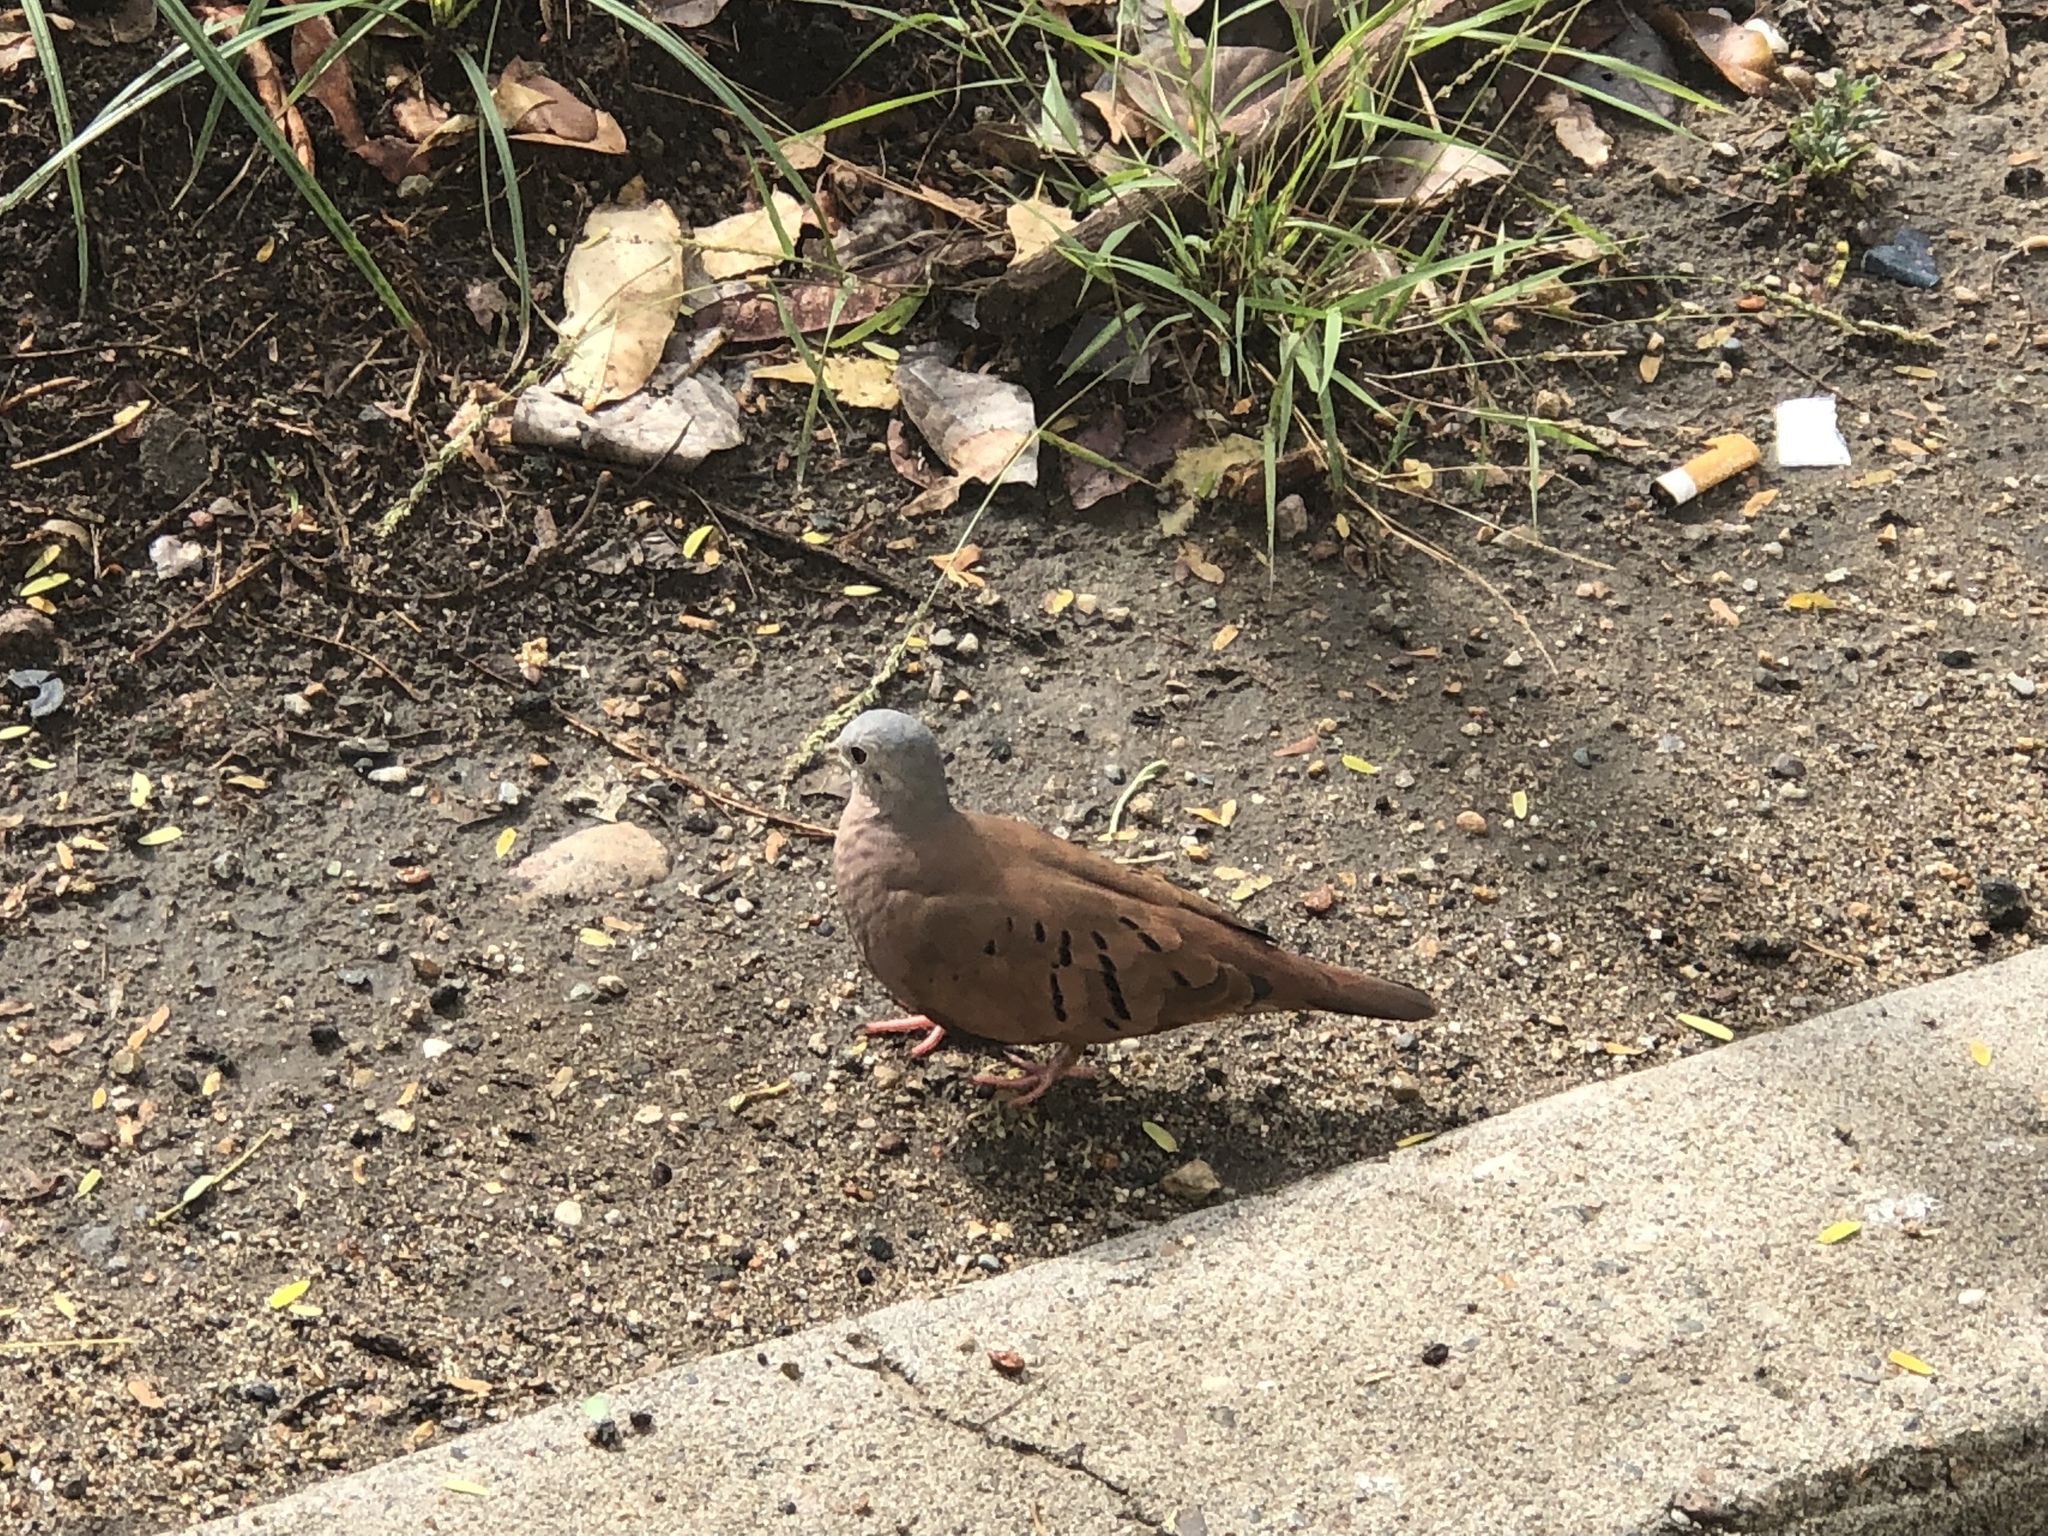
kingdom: Animalia
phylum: Chordata
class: Aves
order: Columbiformes
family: Columbidae
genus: Columbina
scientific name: Columbina talpacoti
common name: Ruddy ground dove
